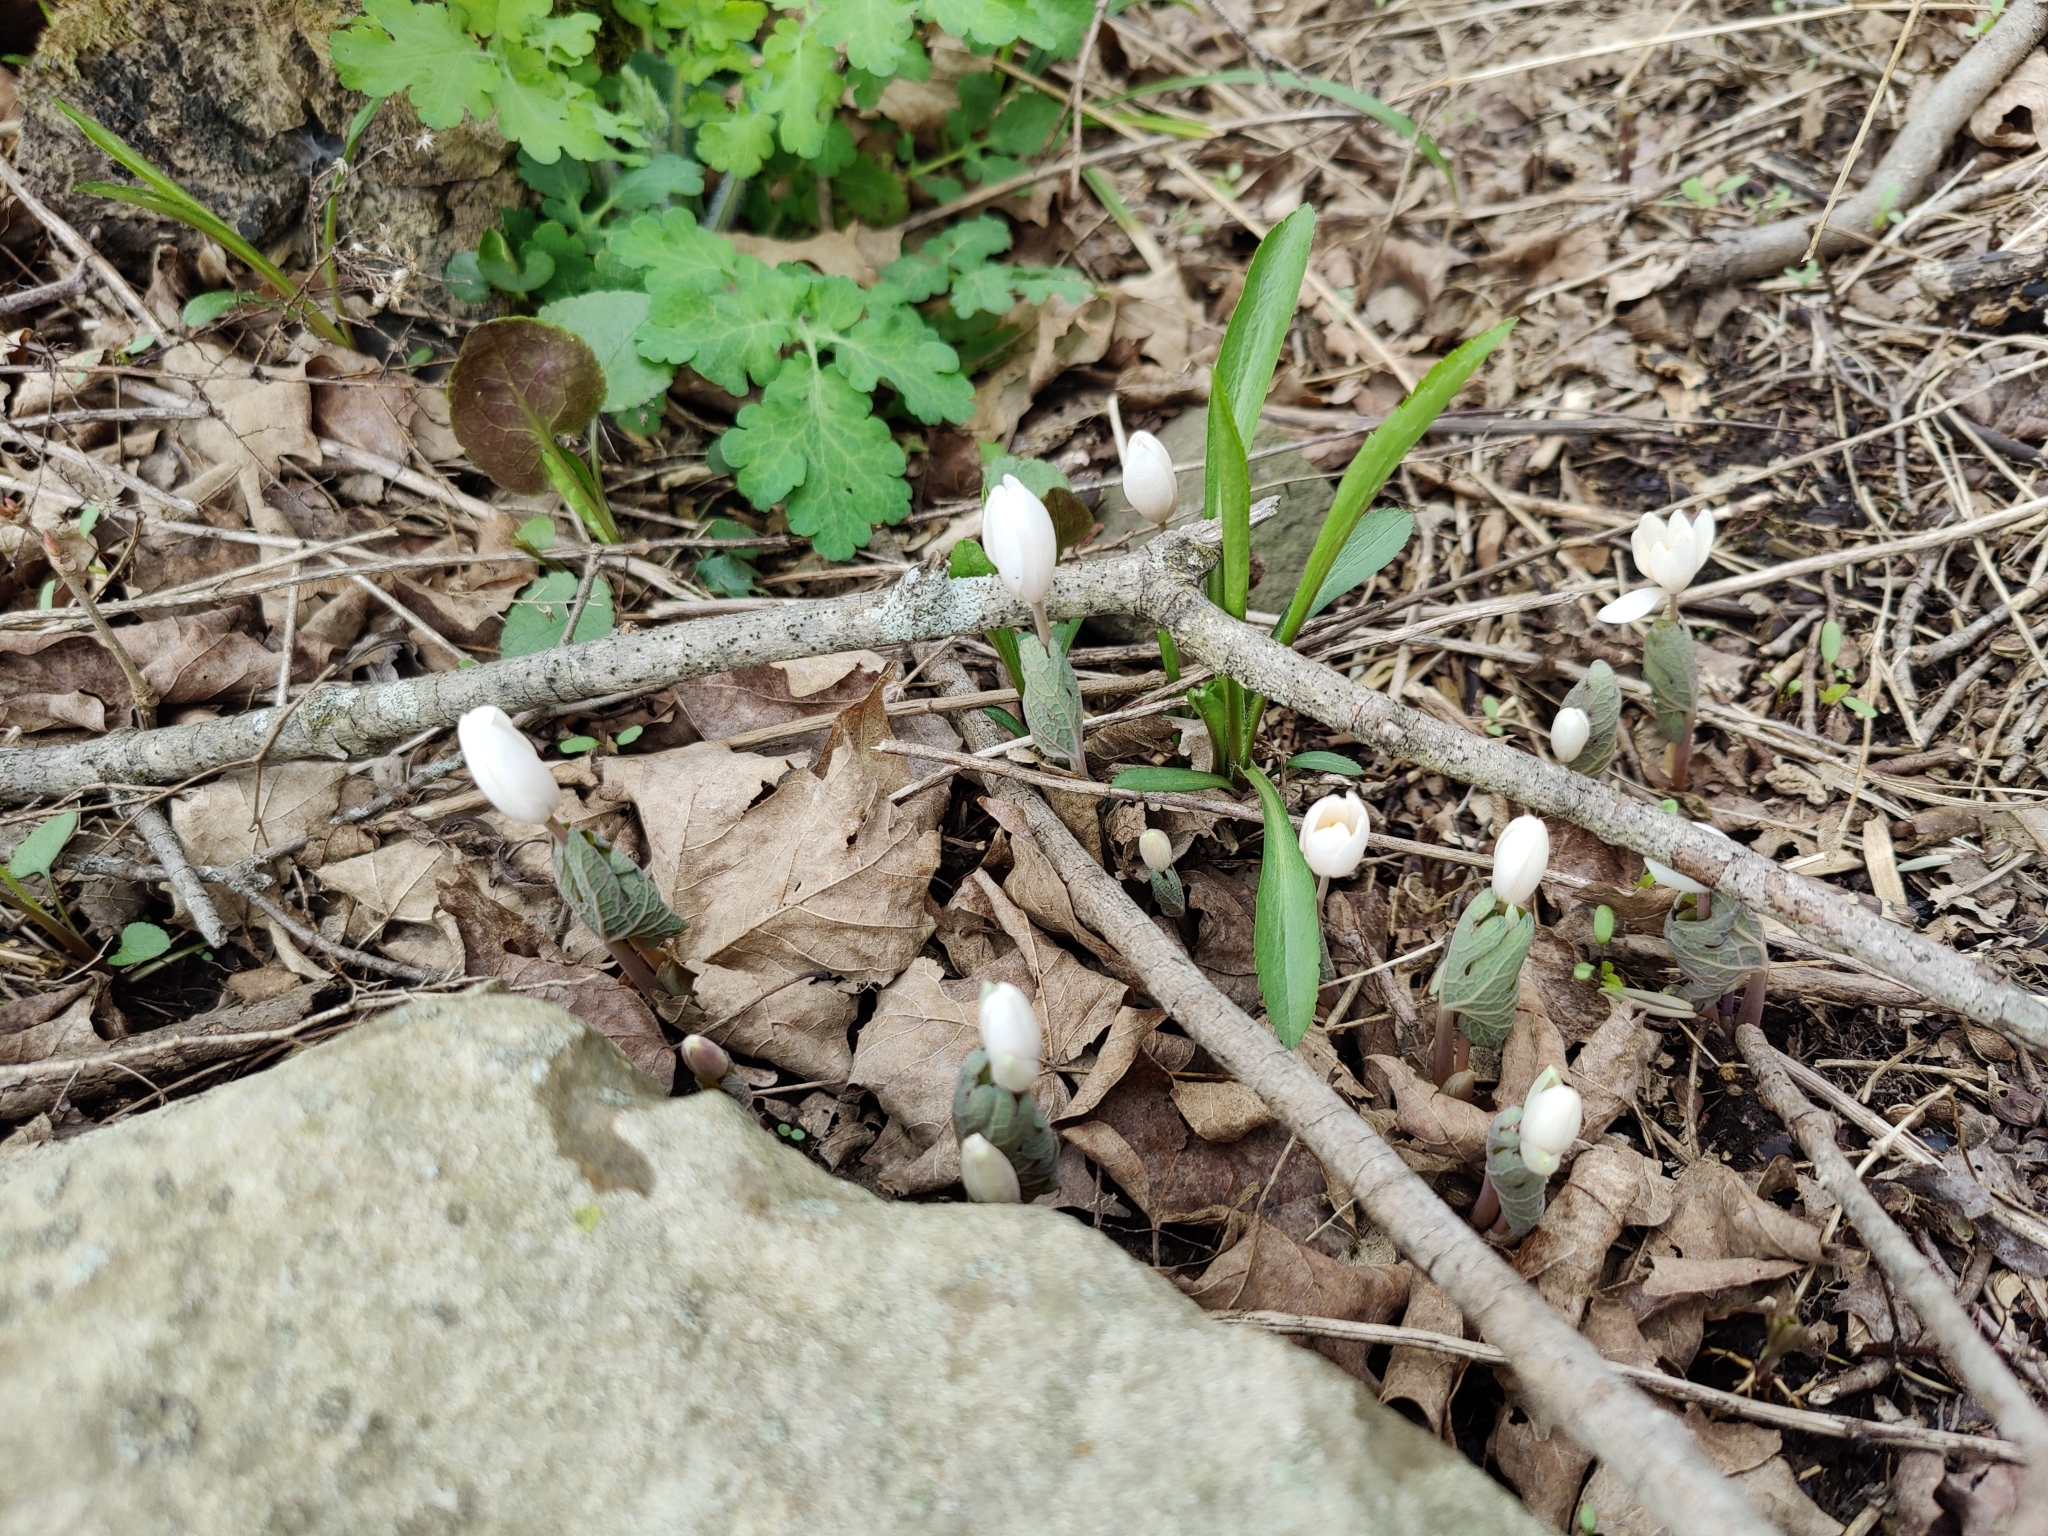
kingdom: Plantae
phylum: Tracheophyta
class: Magnoliopsida
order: Ranunculales
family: Papaveraceae
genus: Sanguinaria
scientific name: Sanguinaria canadensis
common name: Bloodroot
